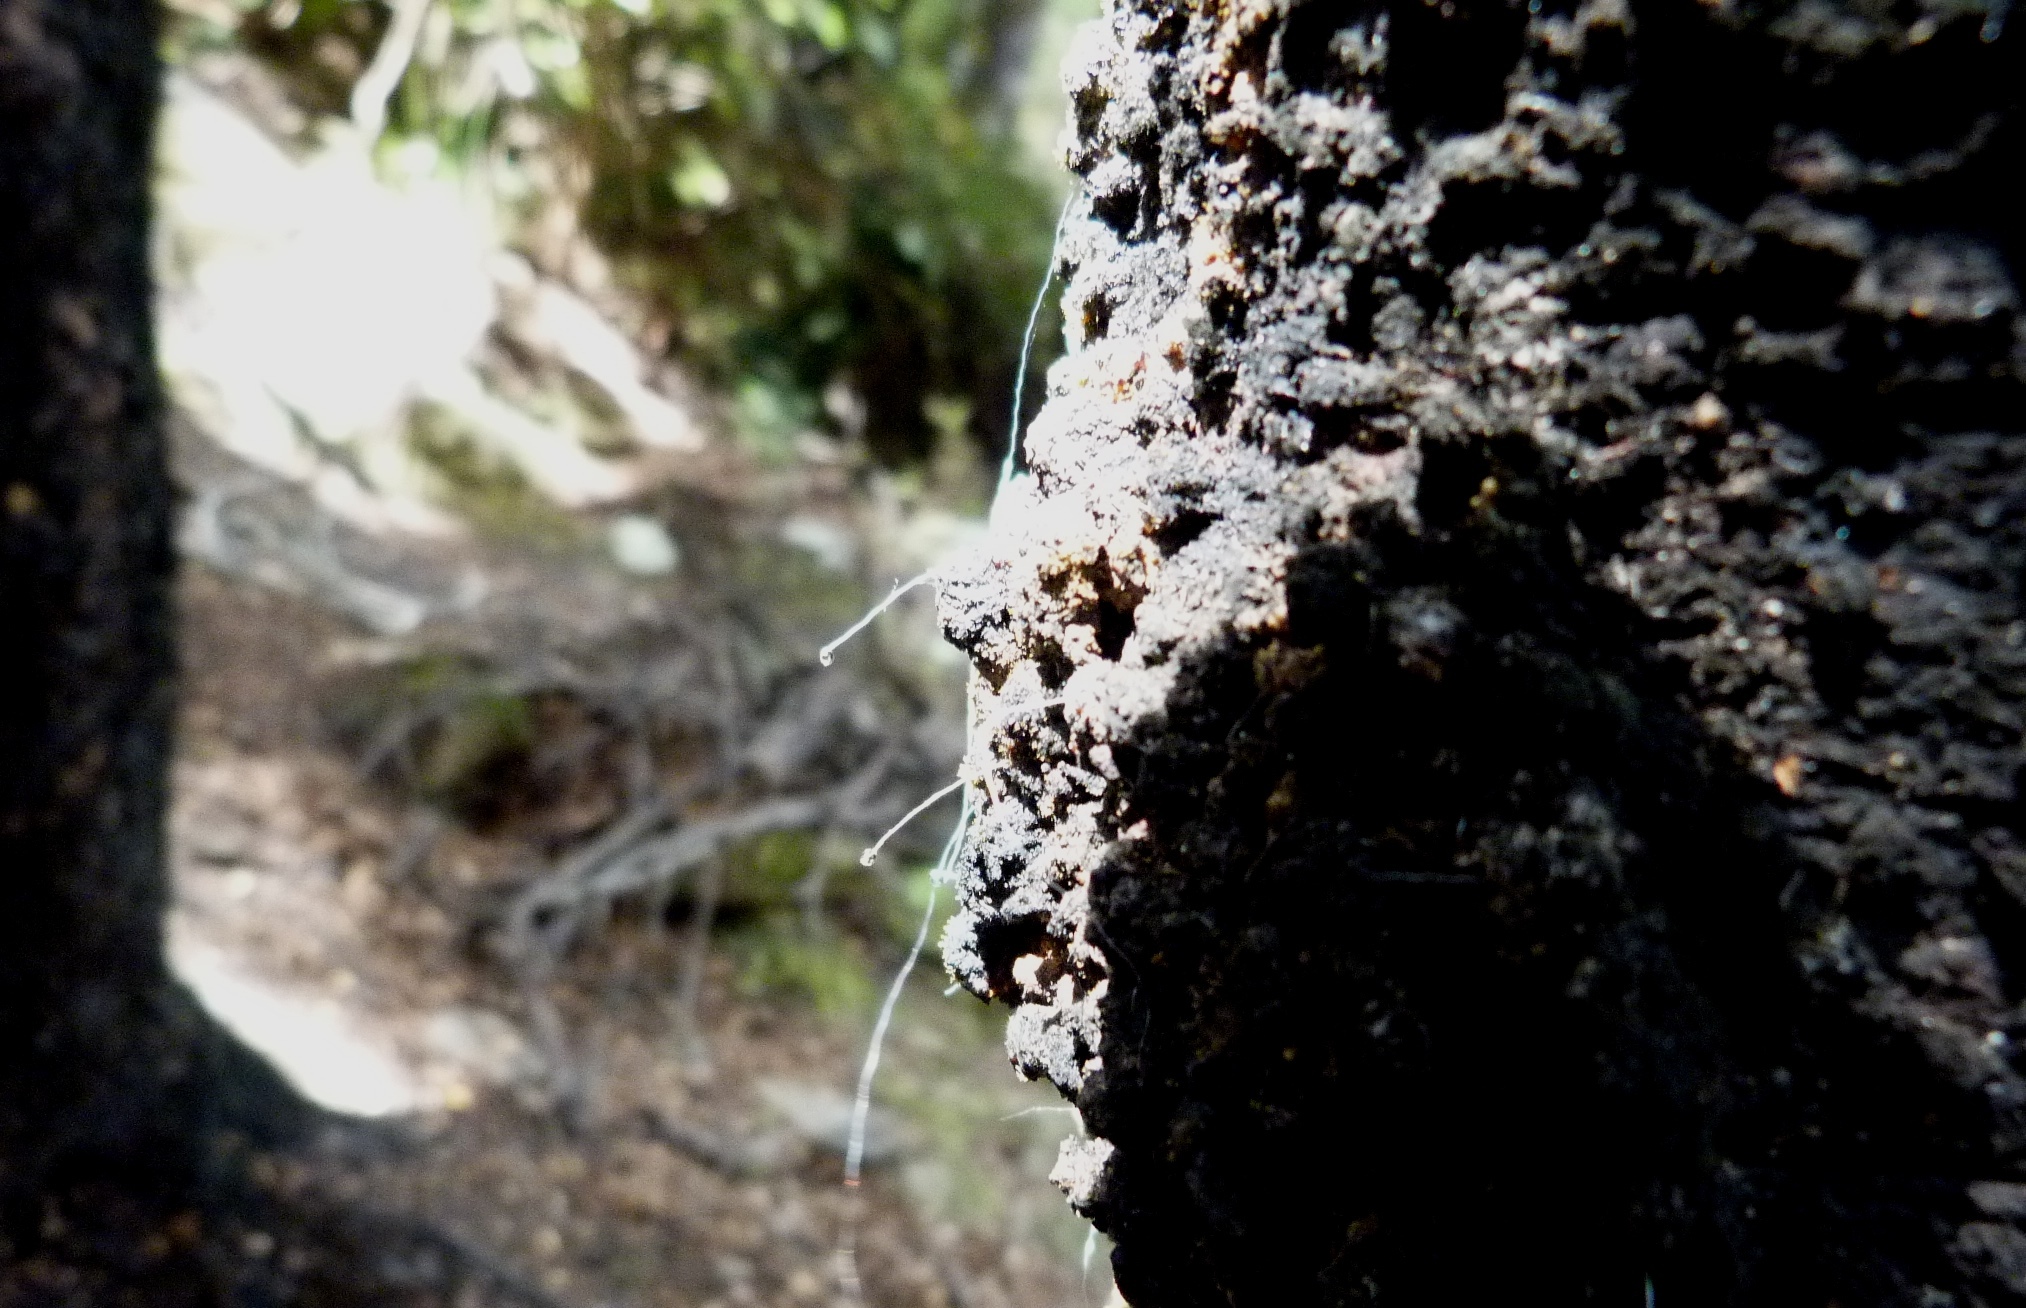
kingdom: Animalia
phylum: Arthropoda
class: Insecta
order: Hemiptera
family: Margarodidae
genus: Ultracoelostoma
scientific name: Ultracoelostoma assimile
